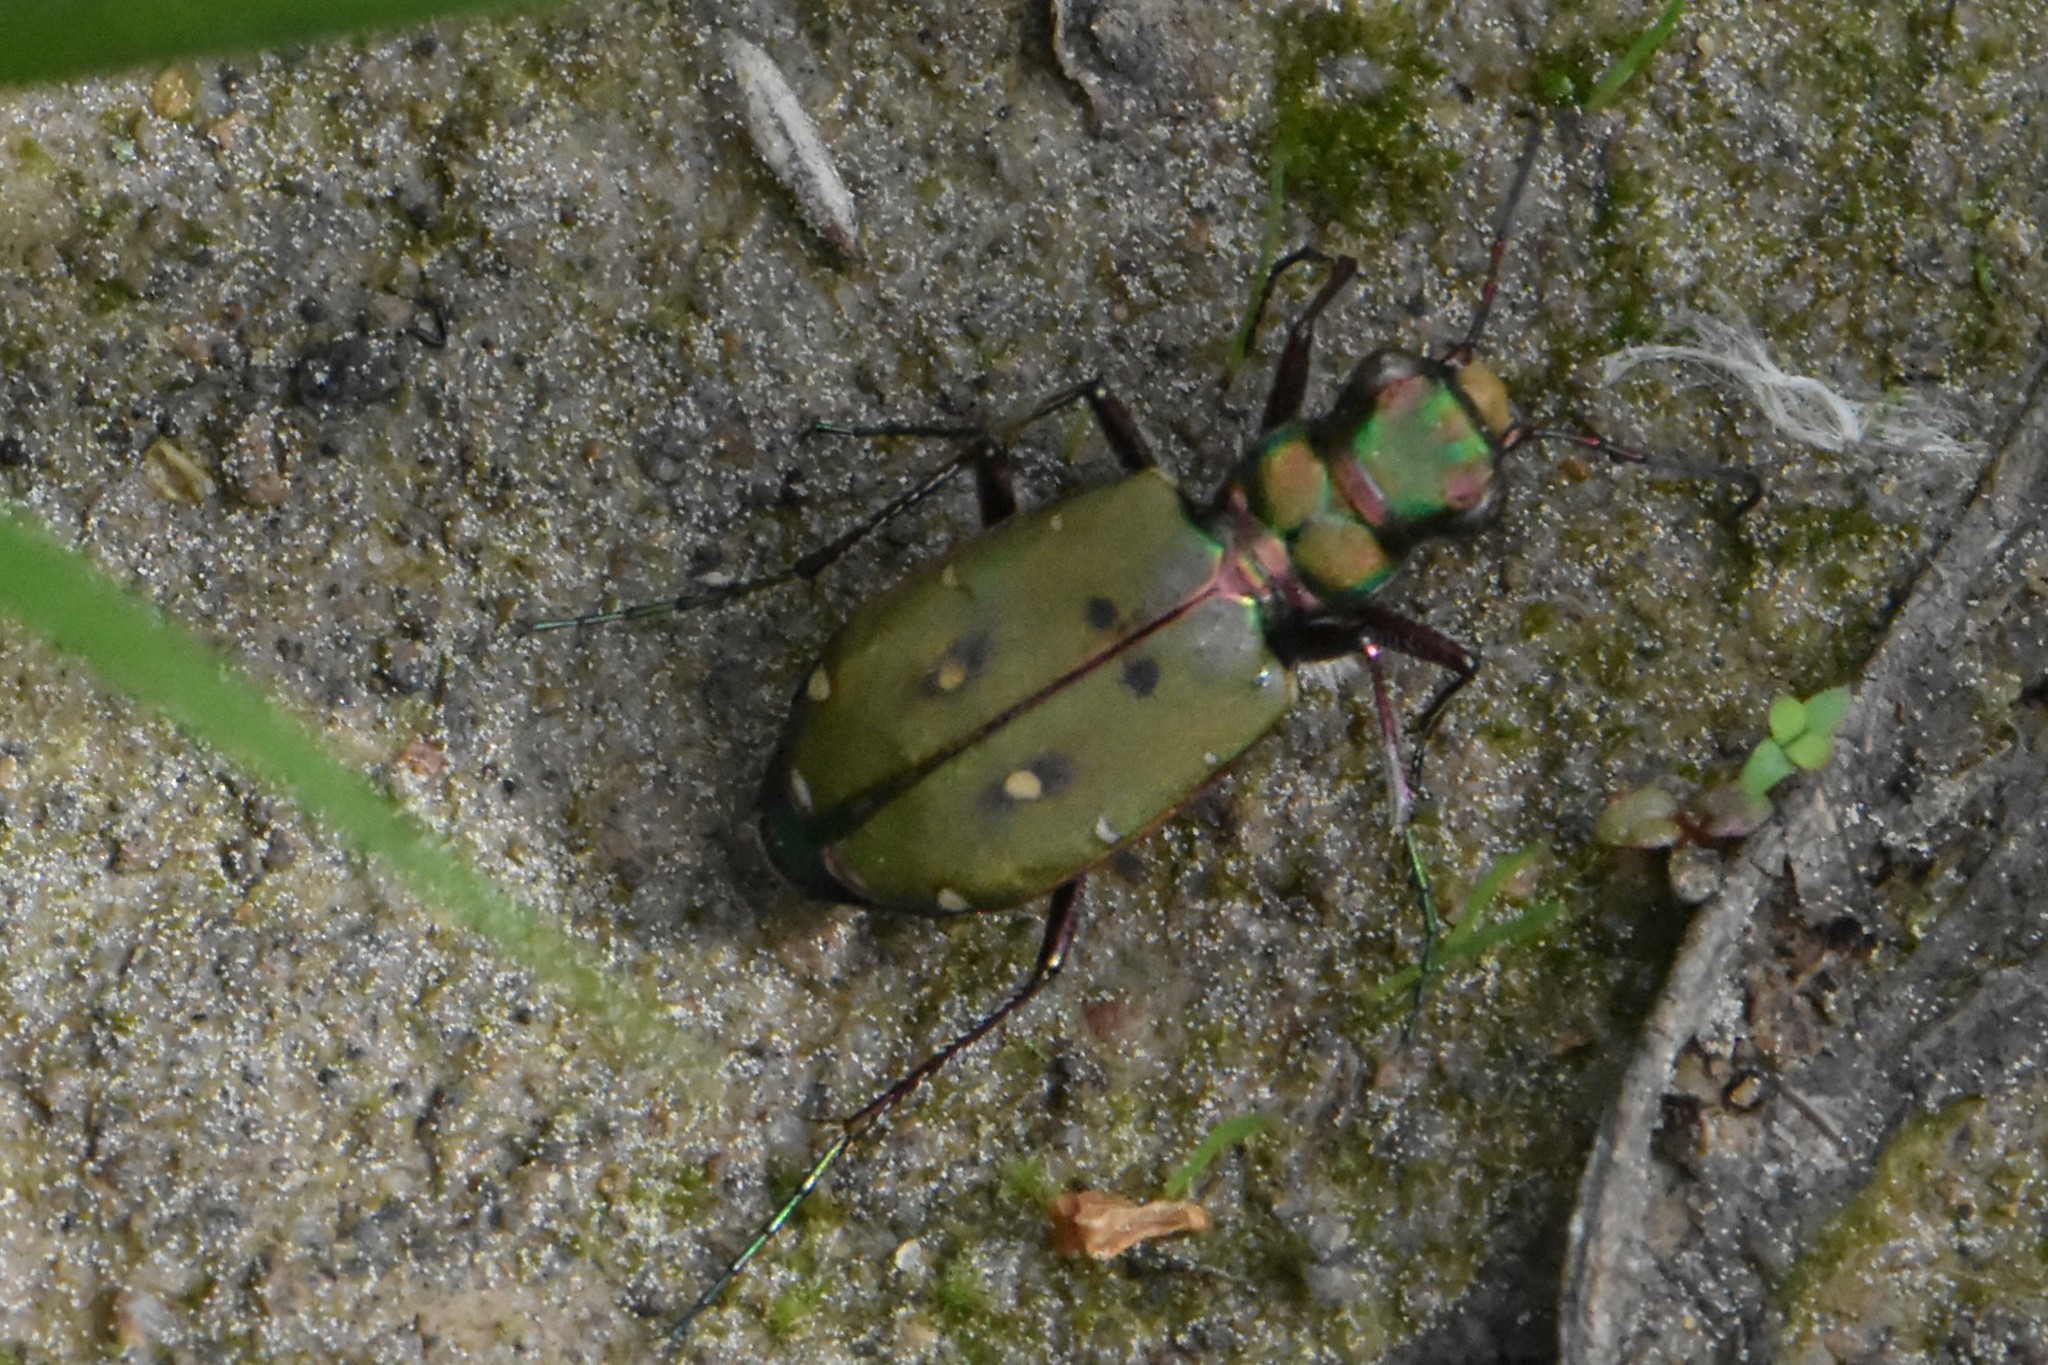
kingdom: Animalia
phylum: Arthropoda
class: Insecta
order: Coleoptera
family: Carabidae
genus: Cicindela
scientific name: Cicindela campestris
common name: Common tiger beetle
